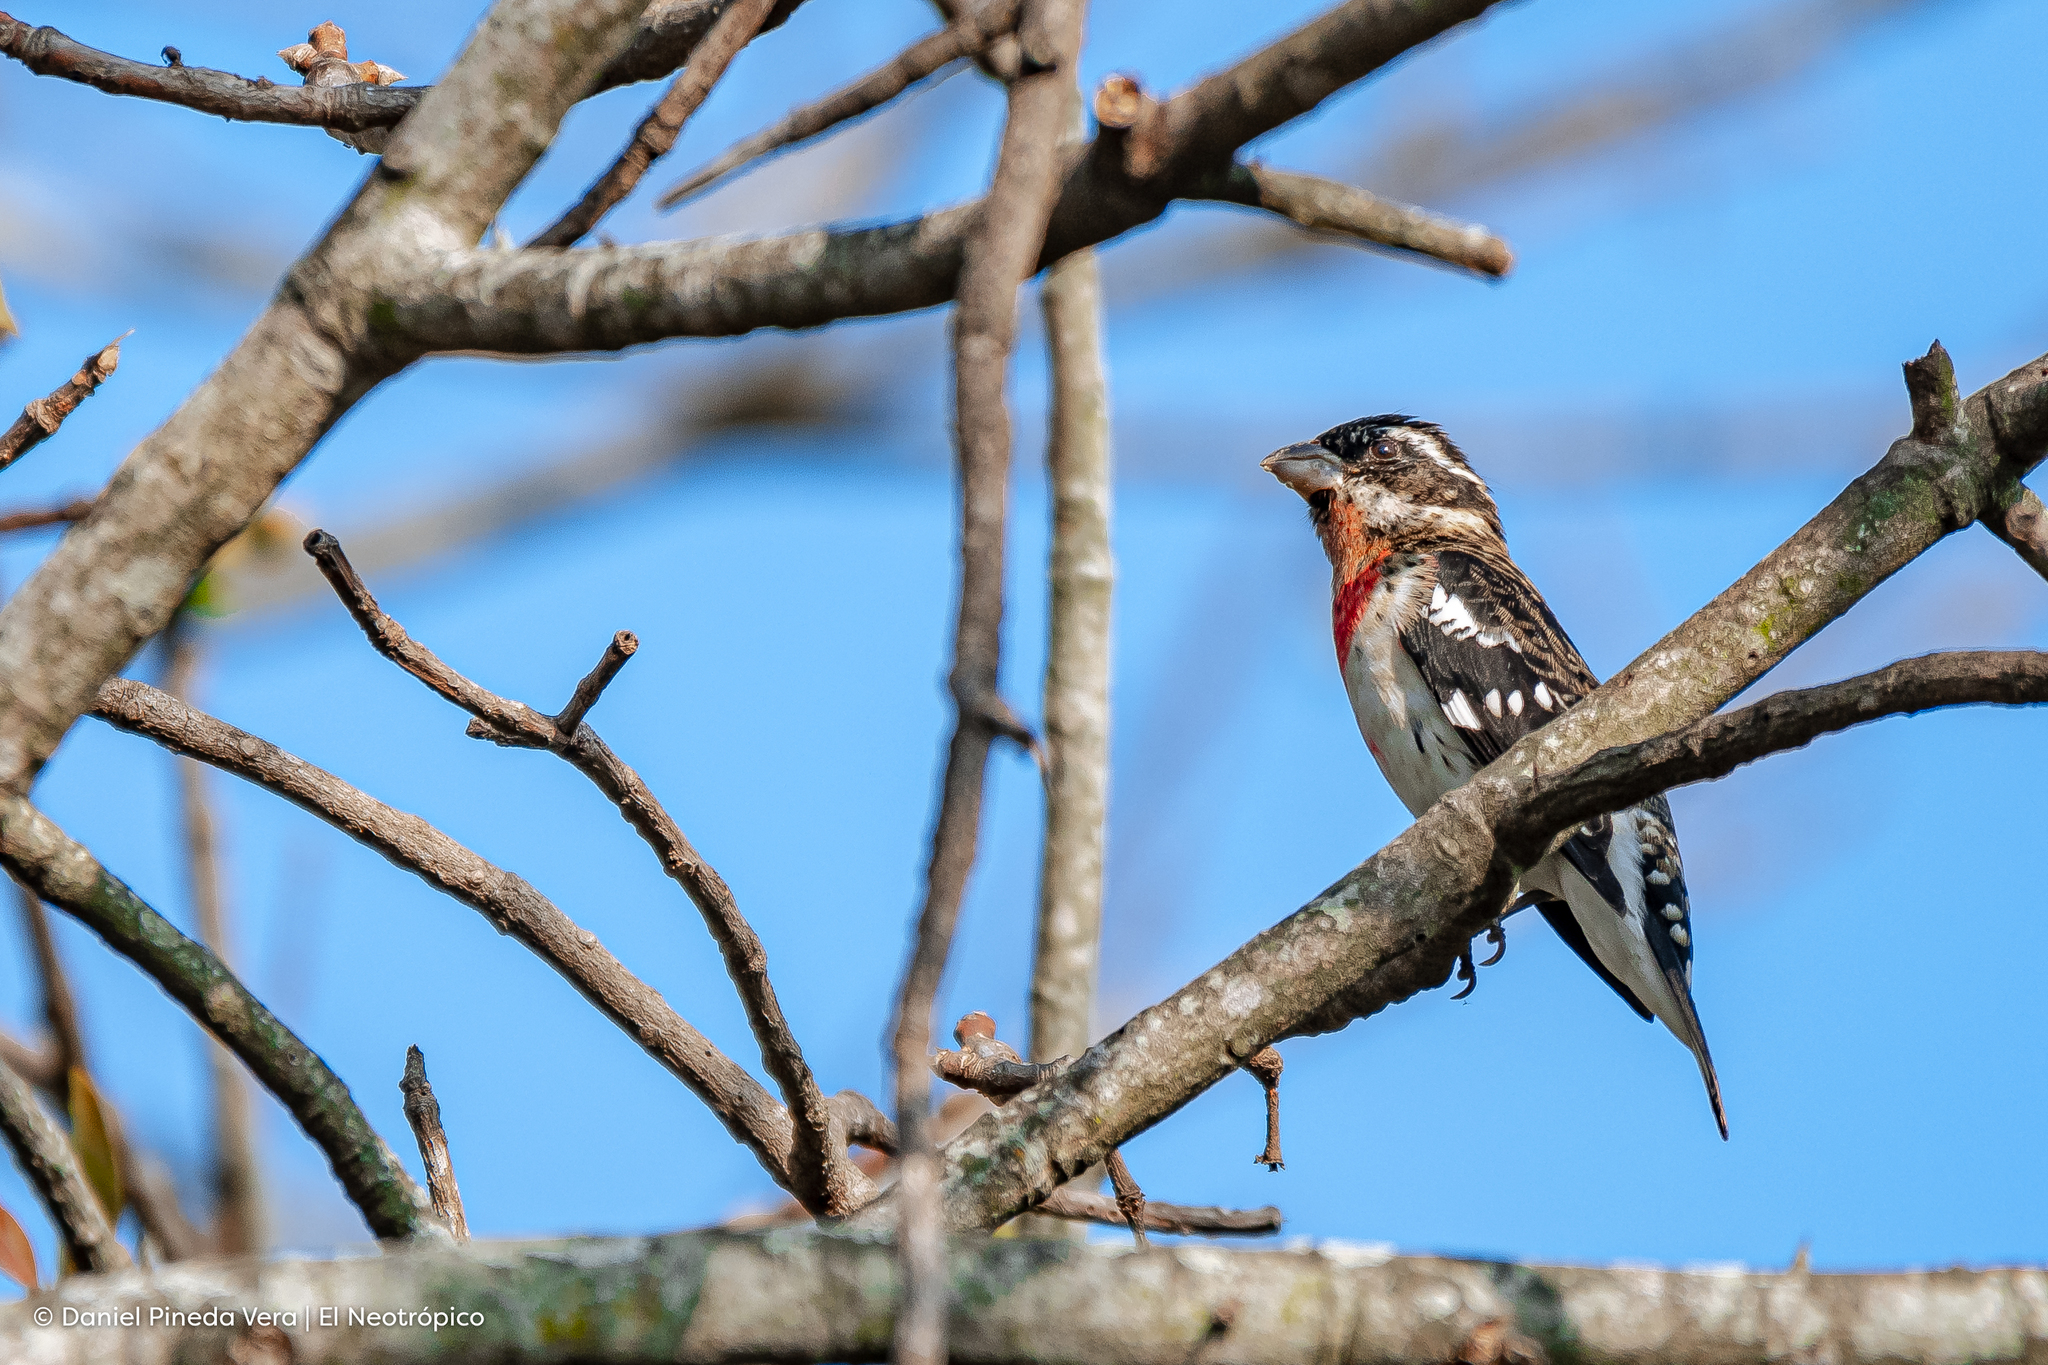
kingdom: Animalia
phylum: Chordata
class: Aves
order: Passeriformes
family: Cardinalidae
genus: Pheucticus
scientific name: Pheucticus ludovicianus
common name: Rose-breasted grosbeak
